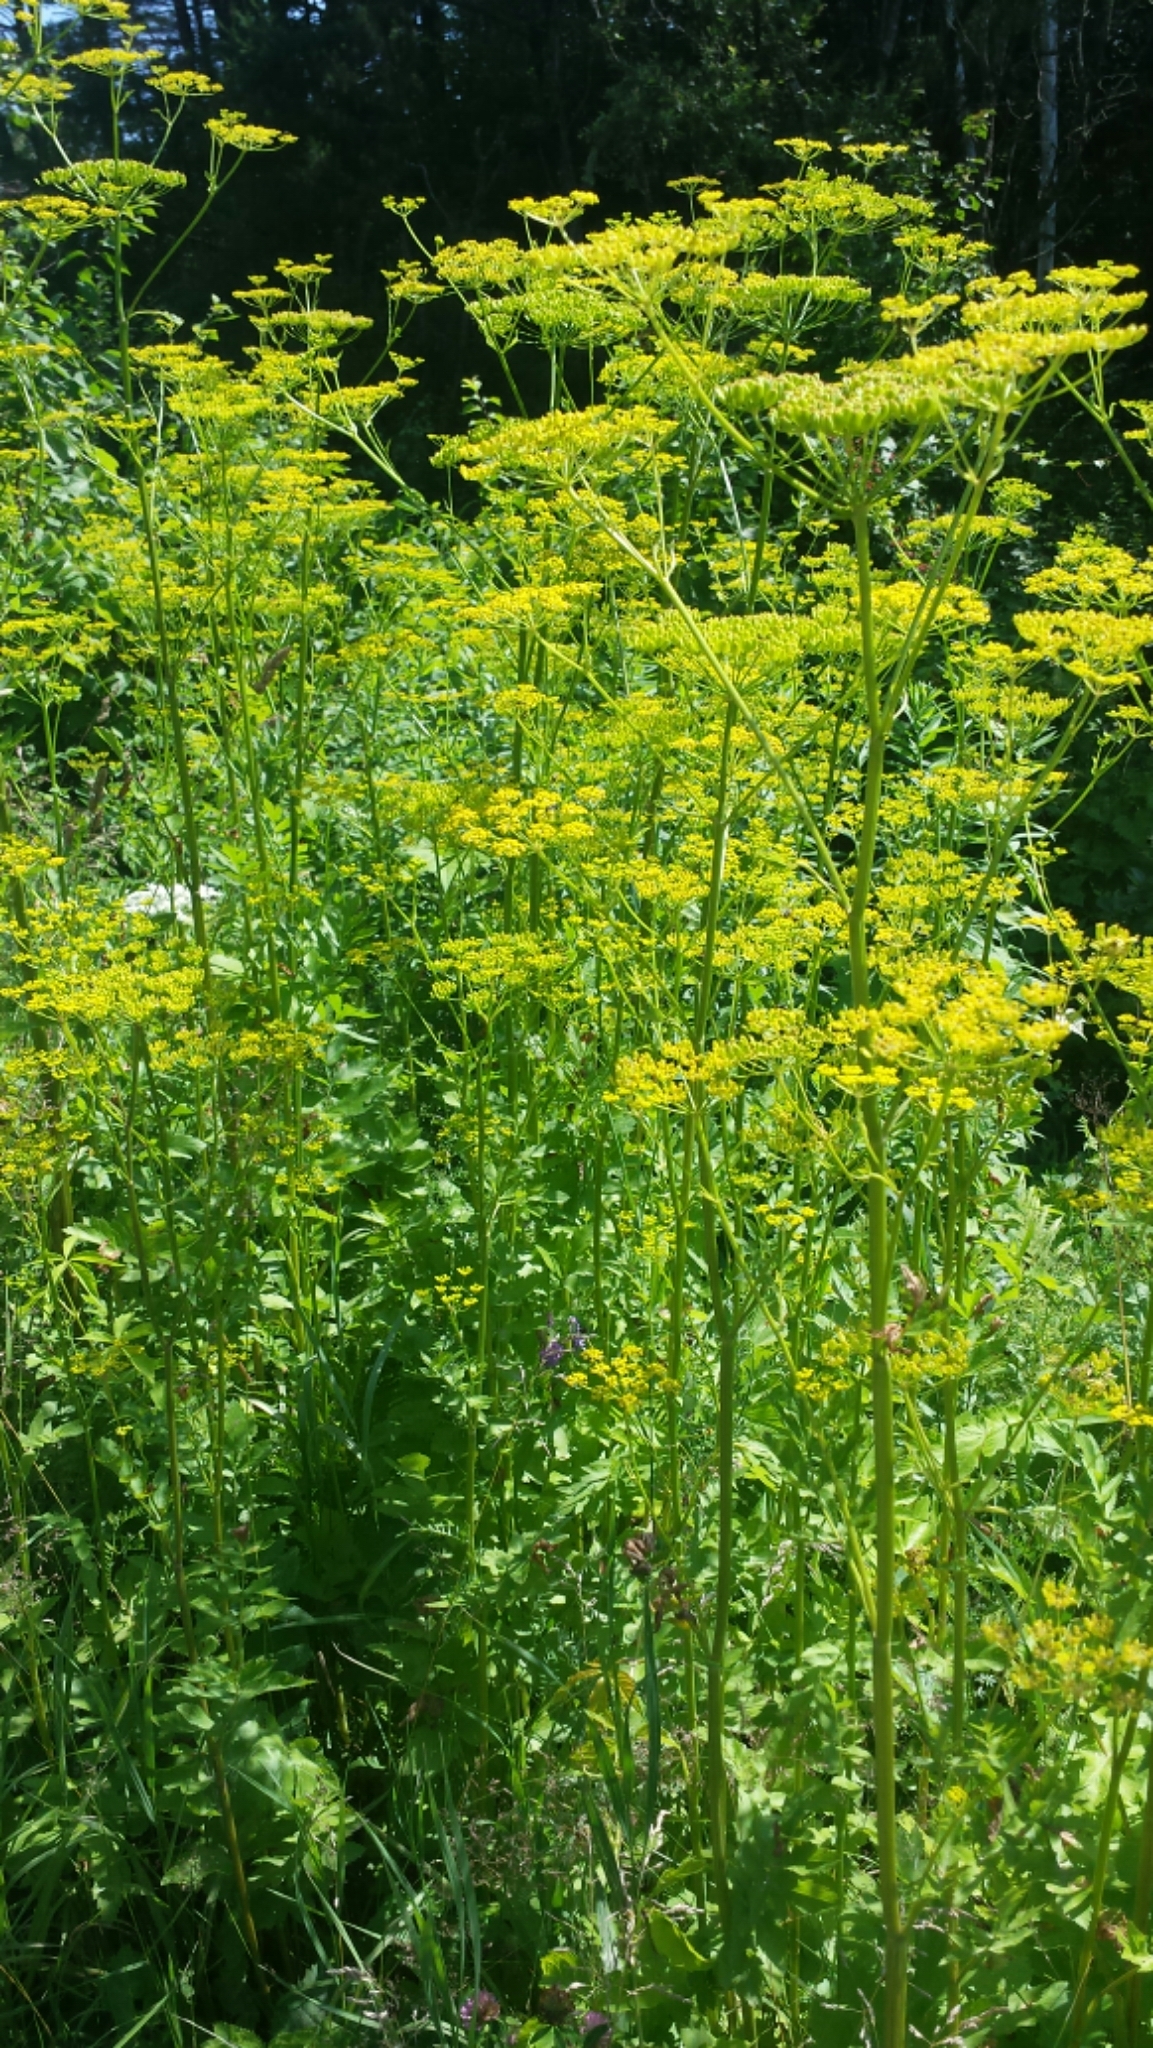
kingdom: Plantae
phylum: Tracheophyta
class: Magnoliopsida
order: Apiales
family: Apiaceae
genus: Pastinaca
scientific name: Pastinaca sativa
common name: Wild parsnip
